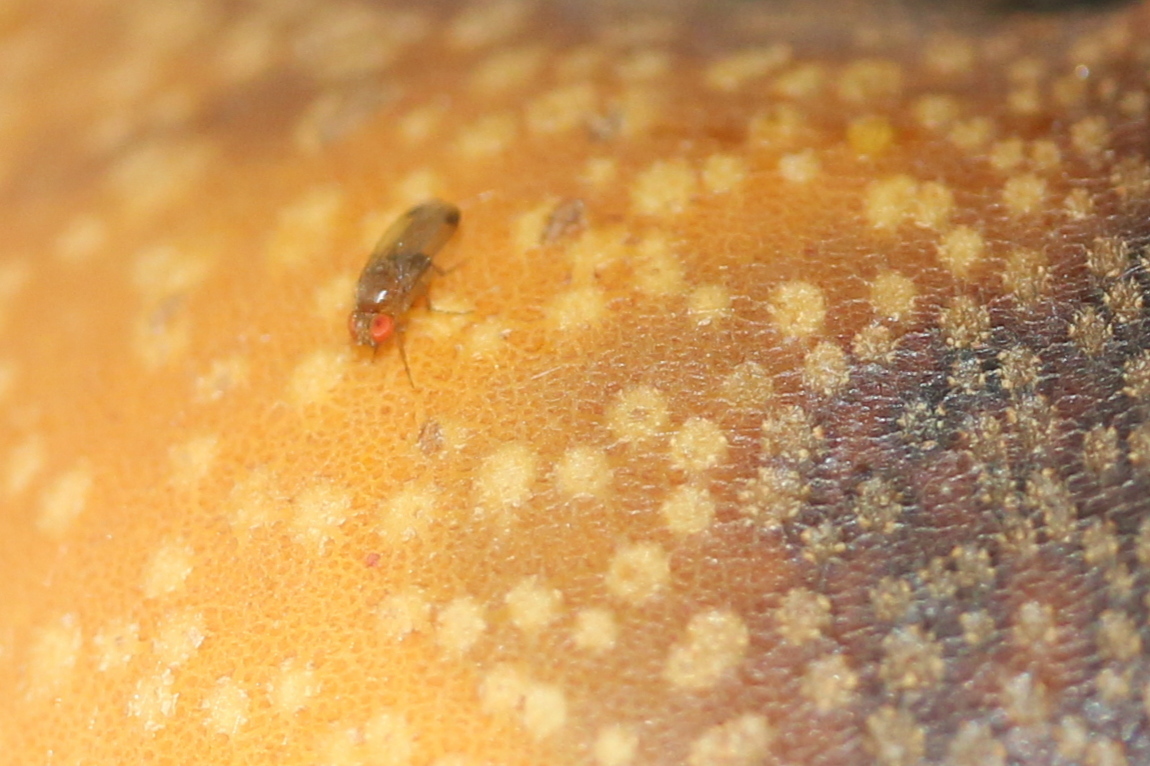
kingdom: Animalia
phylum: Arthropoda
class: Insecta
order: Diptera
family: Drosophilidae
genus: Drosophila
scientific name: Drosophila suzukii
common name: Spotted-wing drosophila
